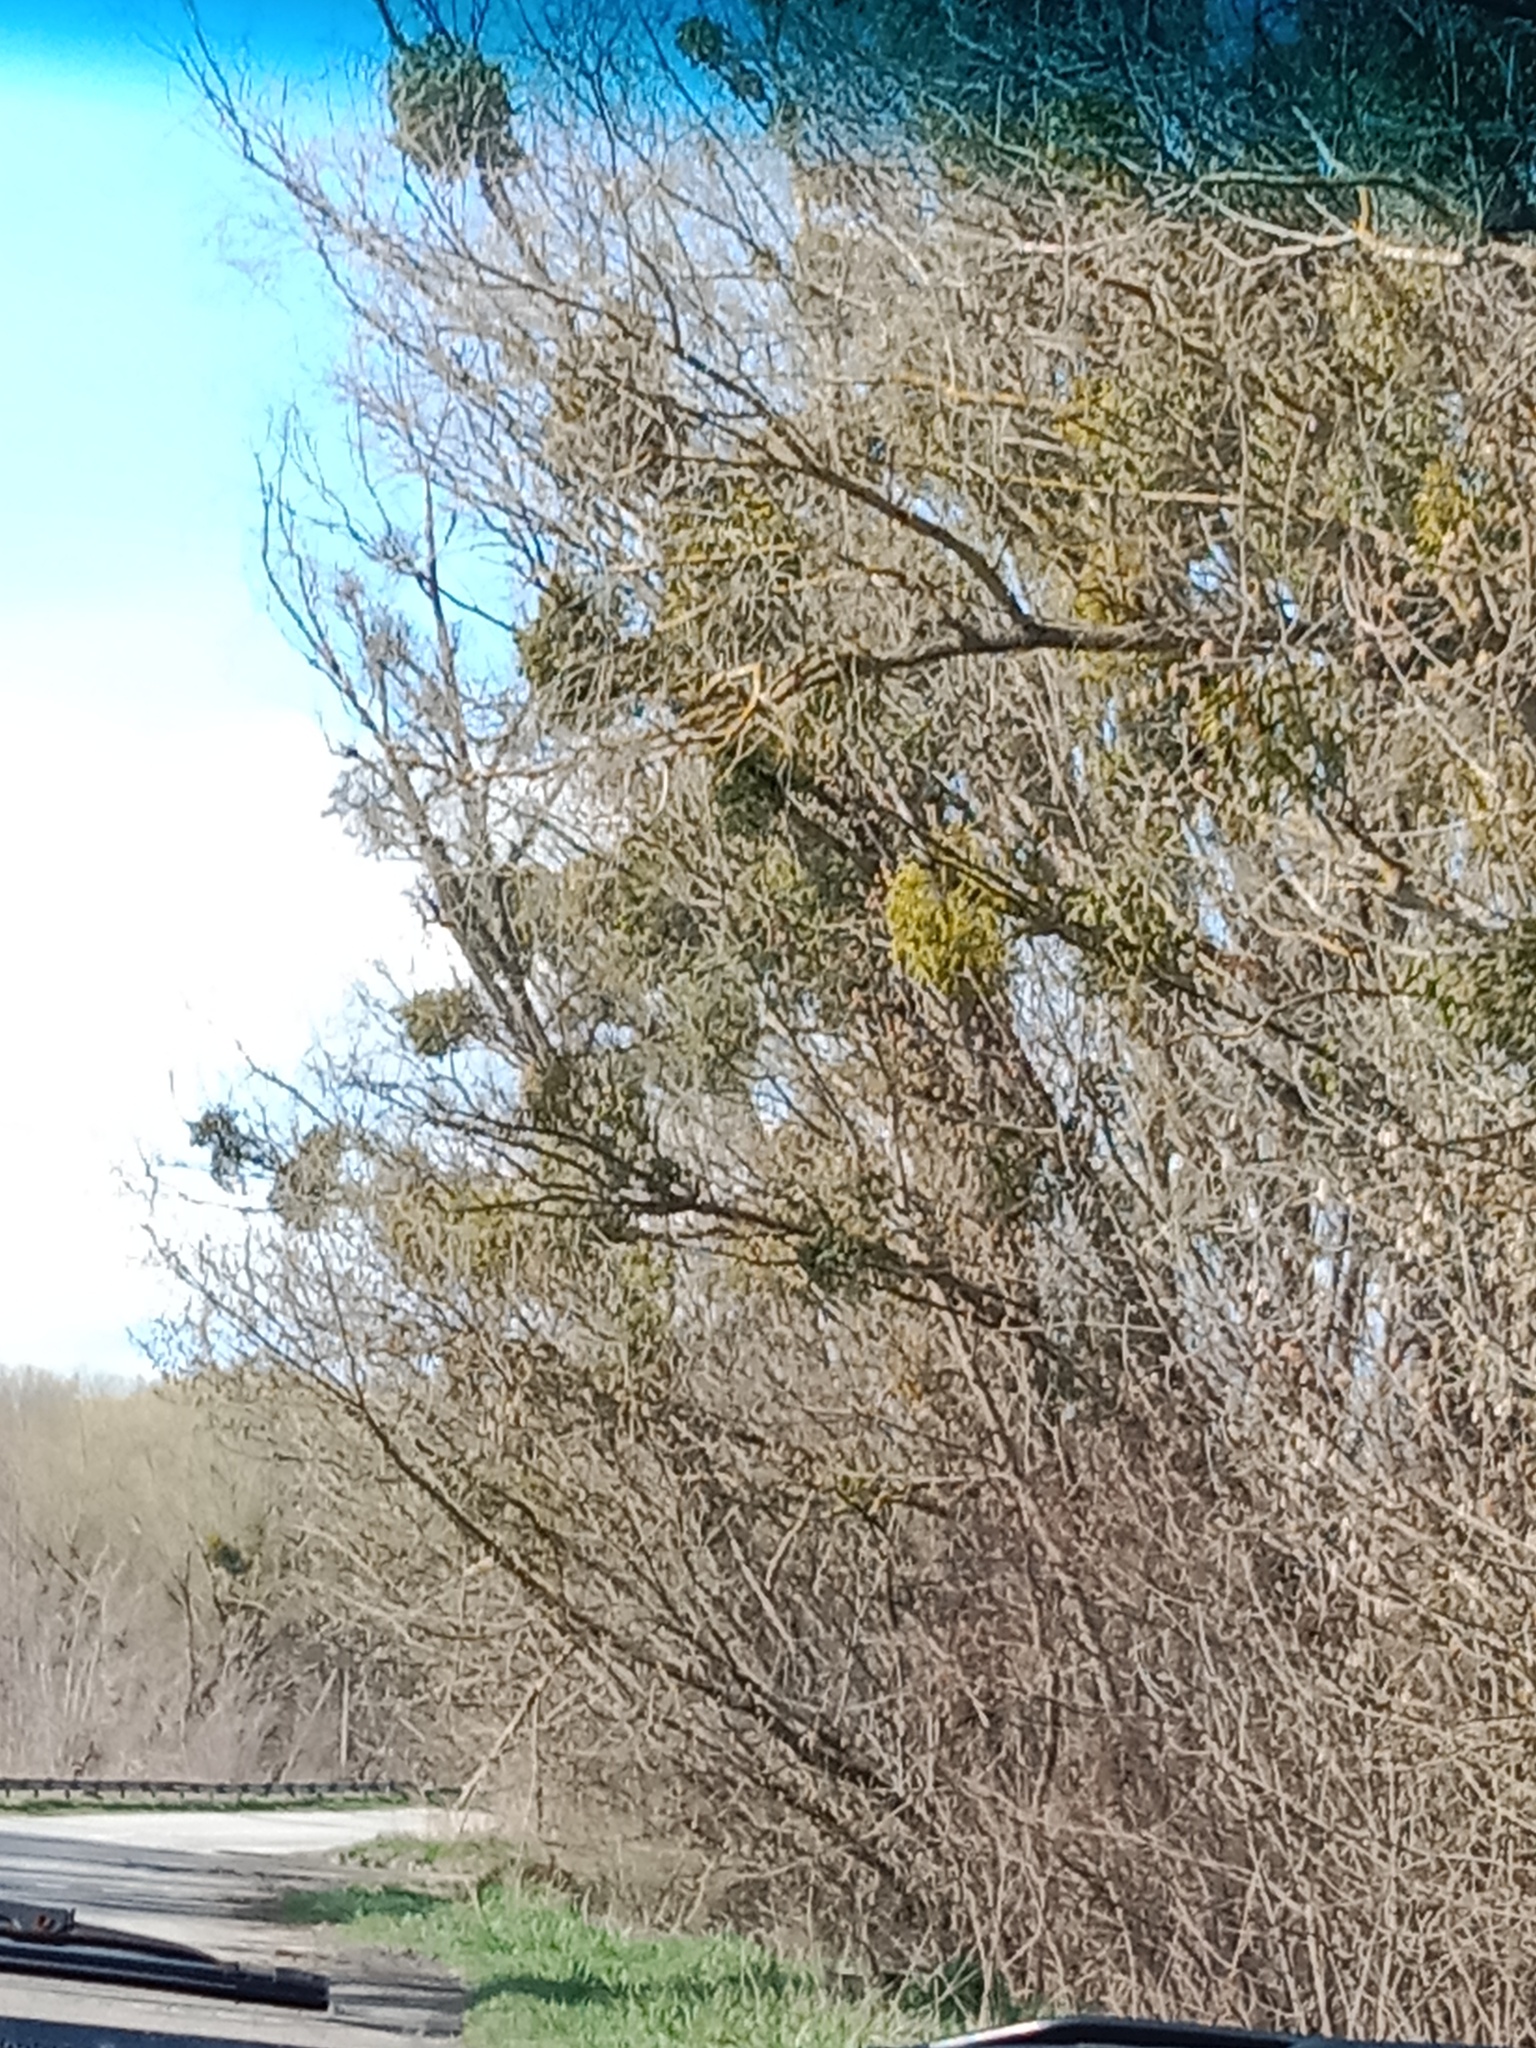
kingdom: Plantae
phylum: Tracheophyta
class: Magnoliopsida
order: Santalales
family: Viscaceae
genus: Viscum
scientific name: Viscum album
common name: Mistletoe
